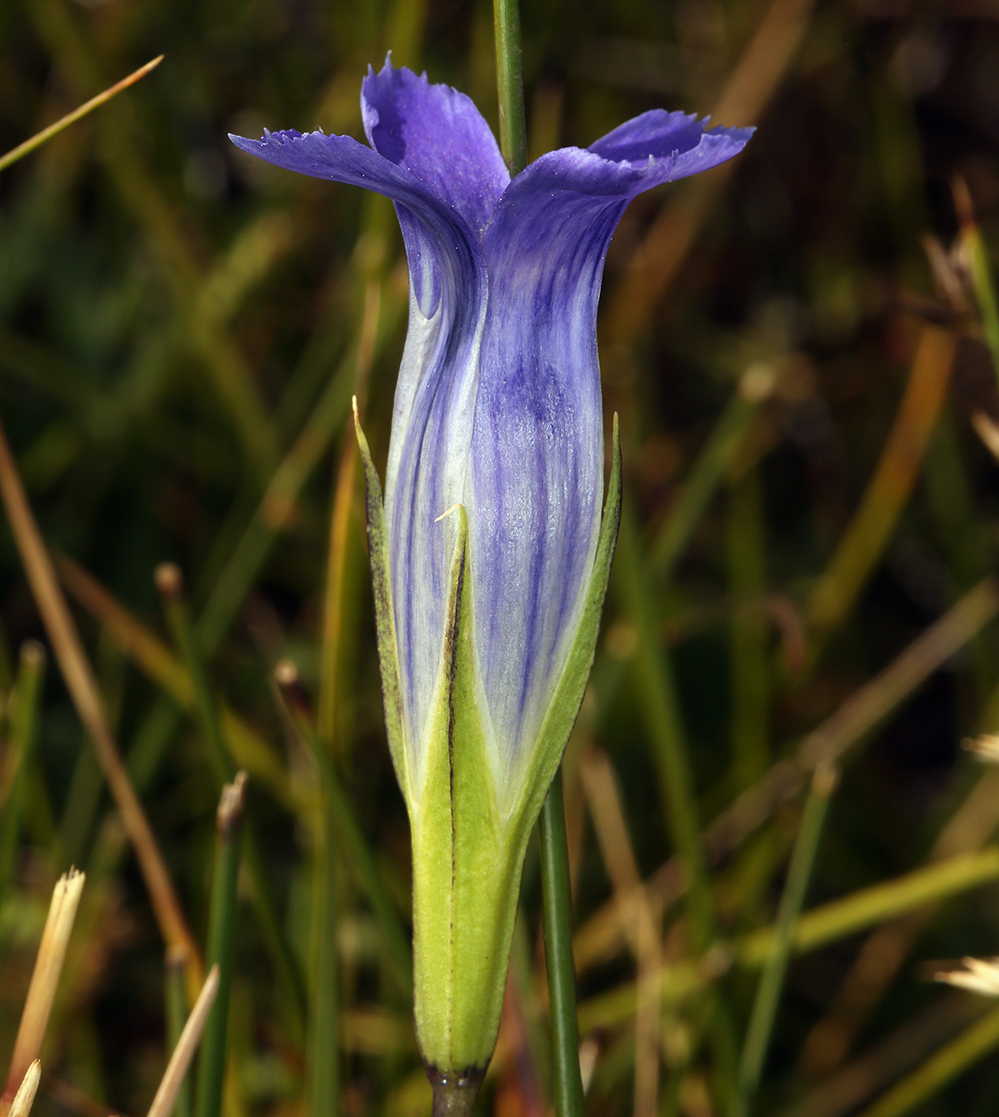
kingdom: Plantae
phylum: Tracheophyta
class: Magnoliopsida
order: Gentianales
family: Gentianaceae
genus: Gentianopsis
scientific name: Gentianopsis holopetala
